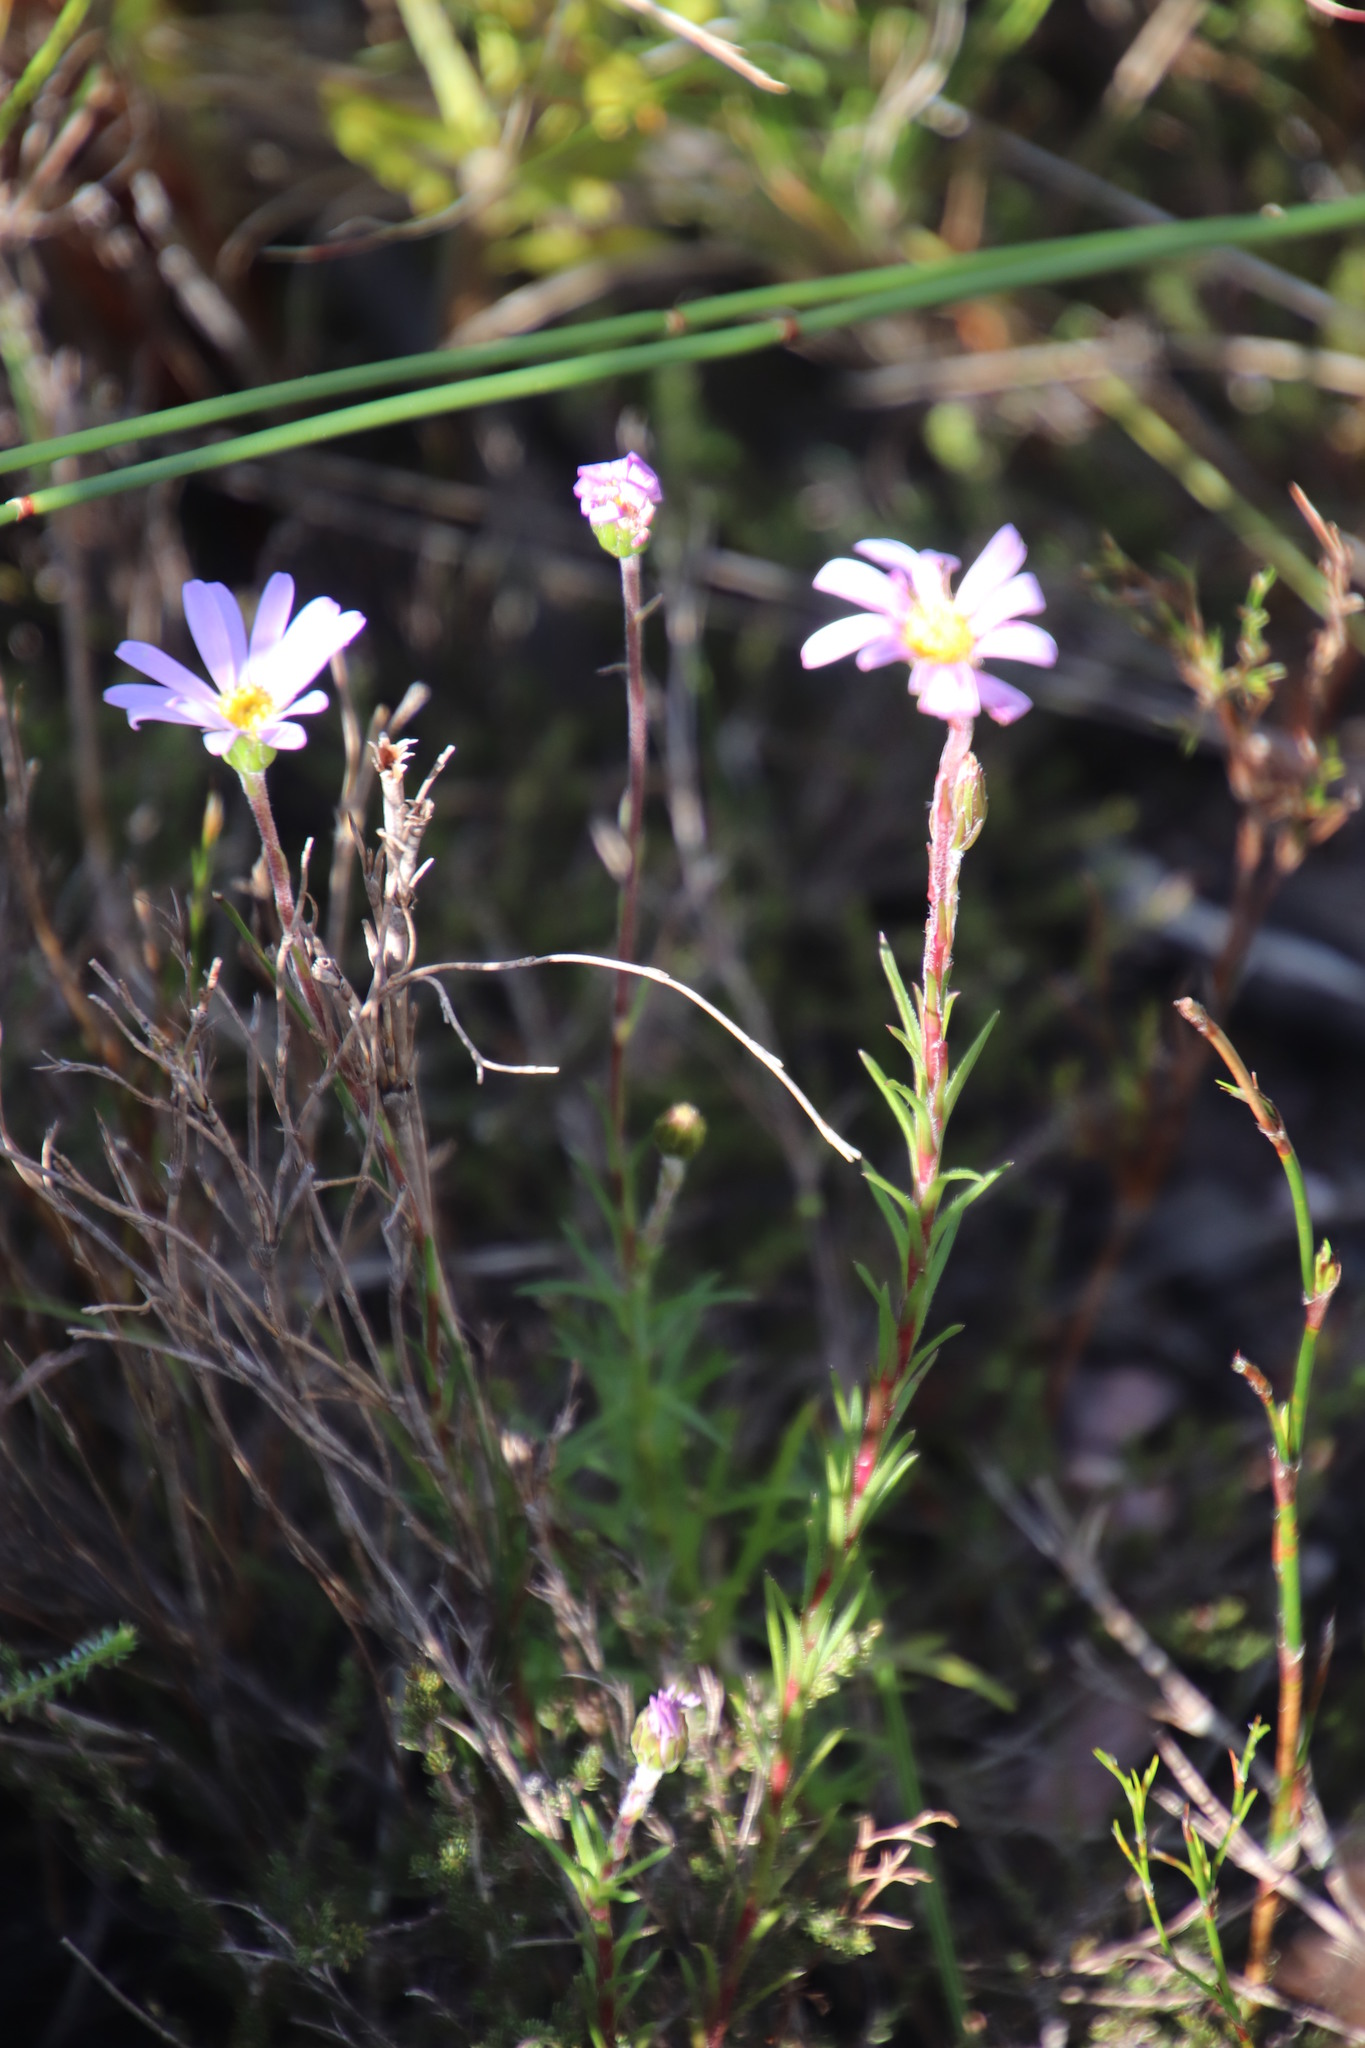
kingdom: Plantae
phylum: Tracheophyta
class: Magnoliopsida
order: Asterales
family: Asteraceae
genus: Zyrphelis
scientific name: Zyrphelis taxifolia
